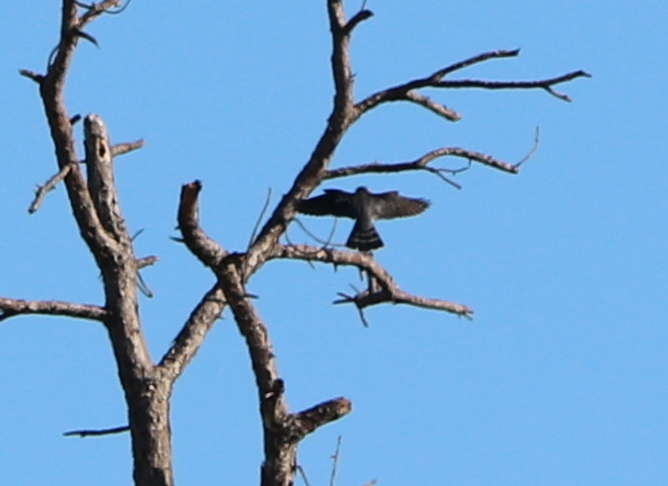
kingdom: Animalia
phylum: Chordata
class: Aves
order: Falconiformes
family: Falconidae
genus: Falco
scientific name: Falco columbarius
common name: Merlin
